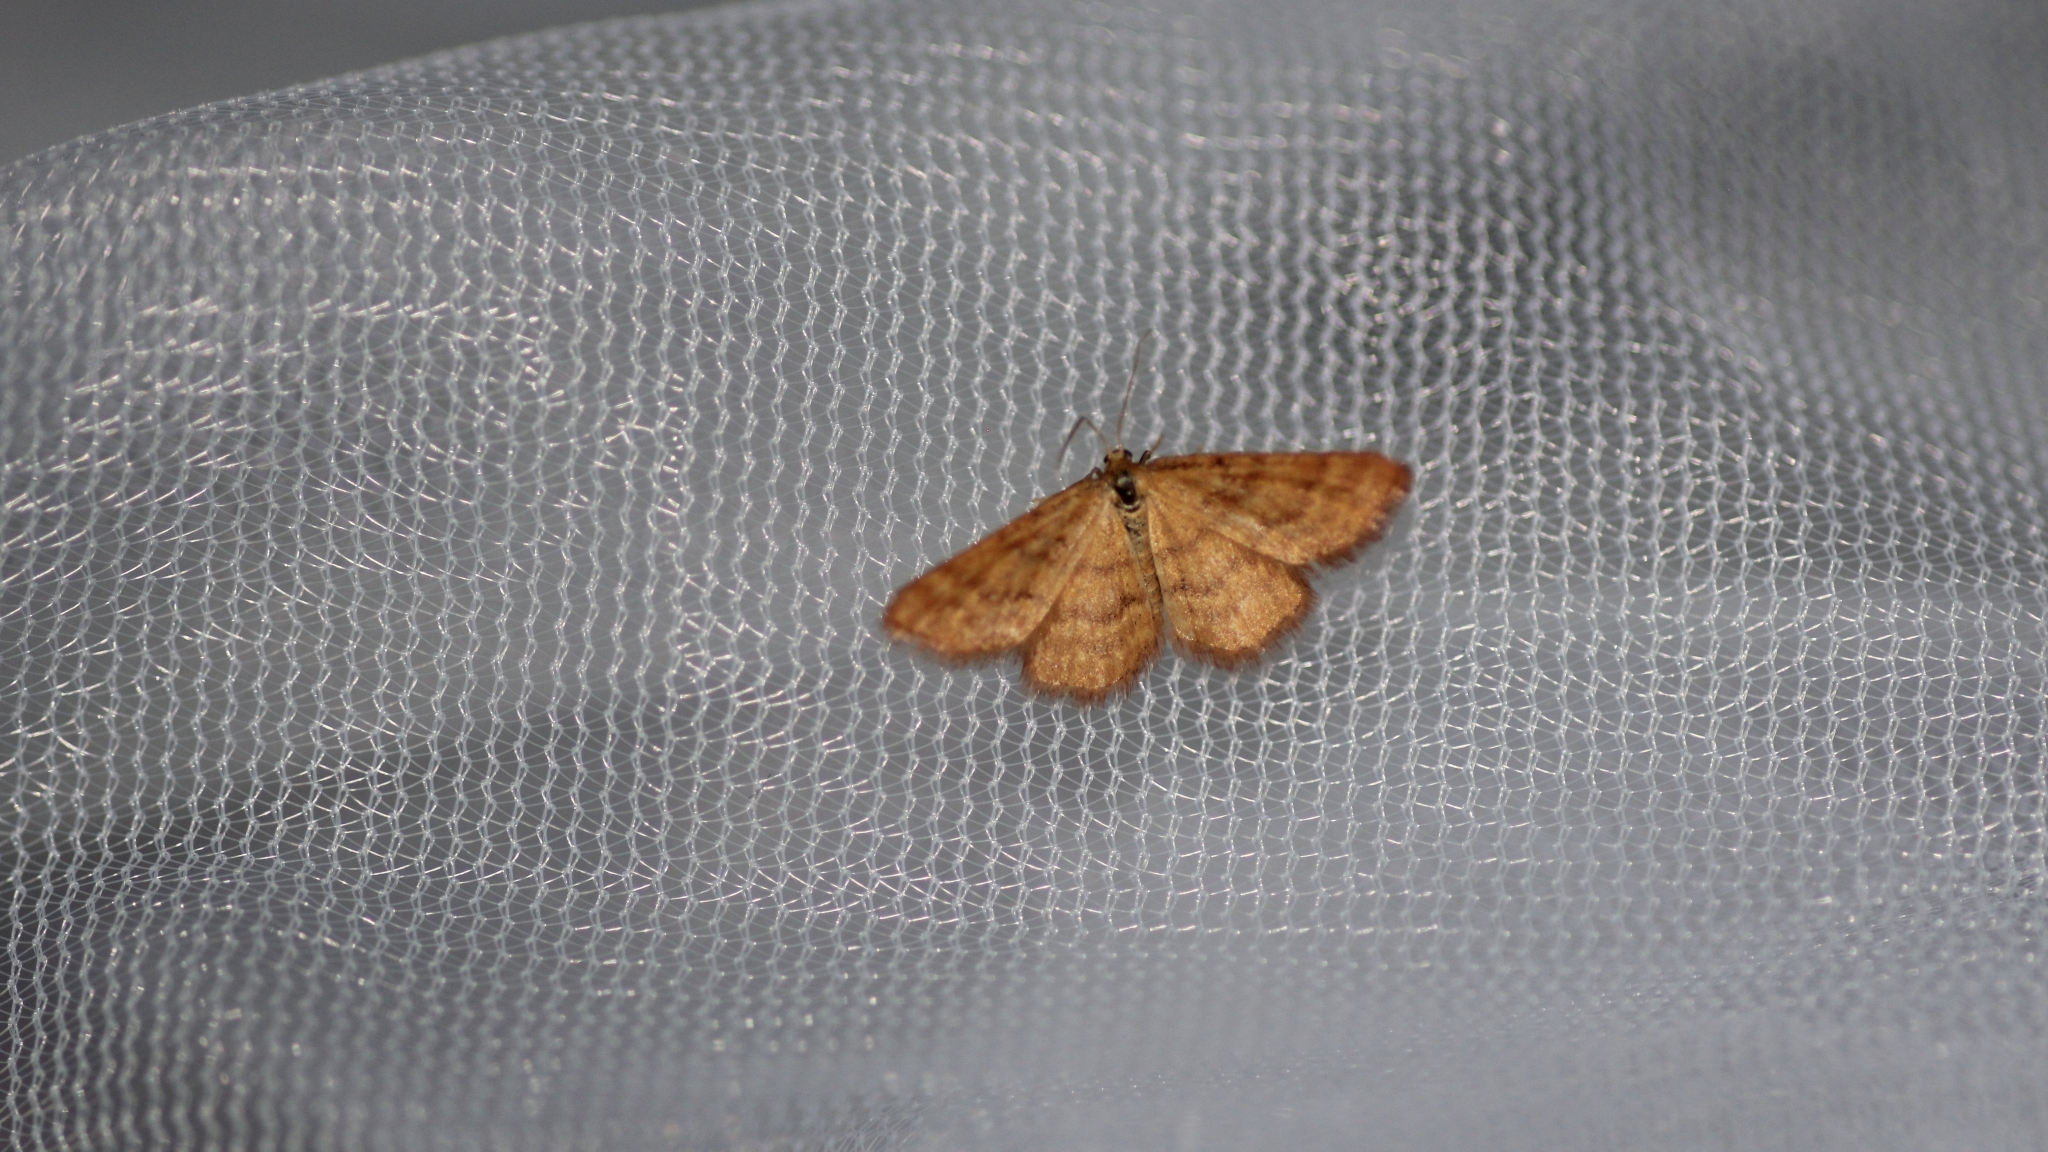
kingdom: Animalia
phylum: Arthropoda
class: Insecta
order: Lepidoptera
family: Geometridae
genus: Idaea
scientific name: Idaea serpentata
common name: Ochraceous wave
